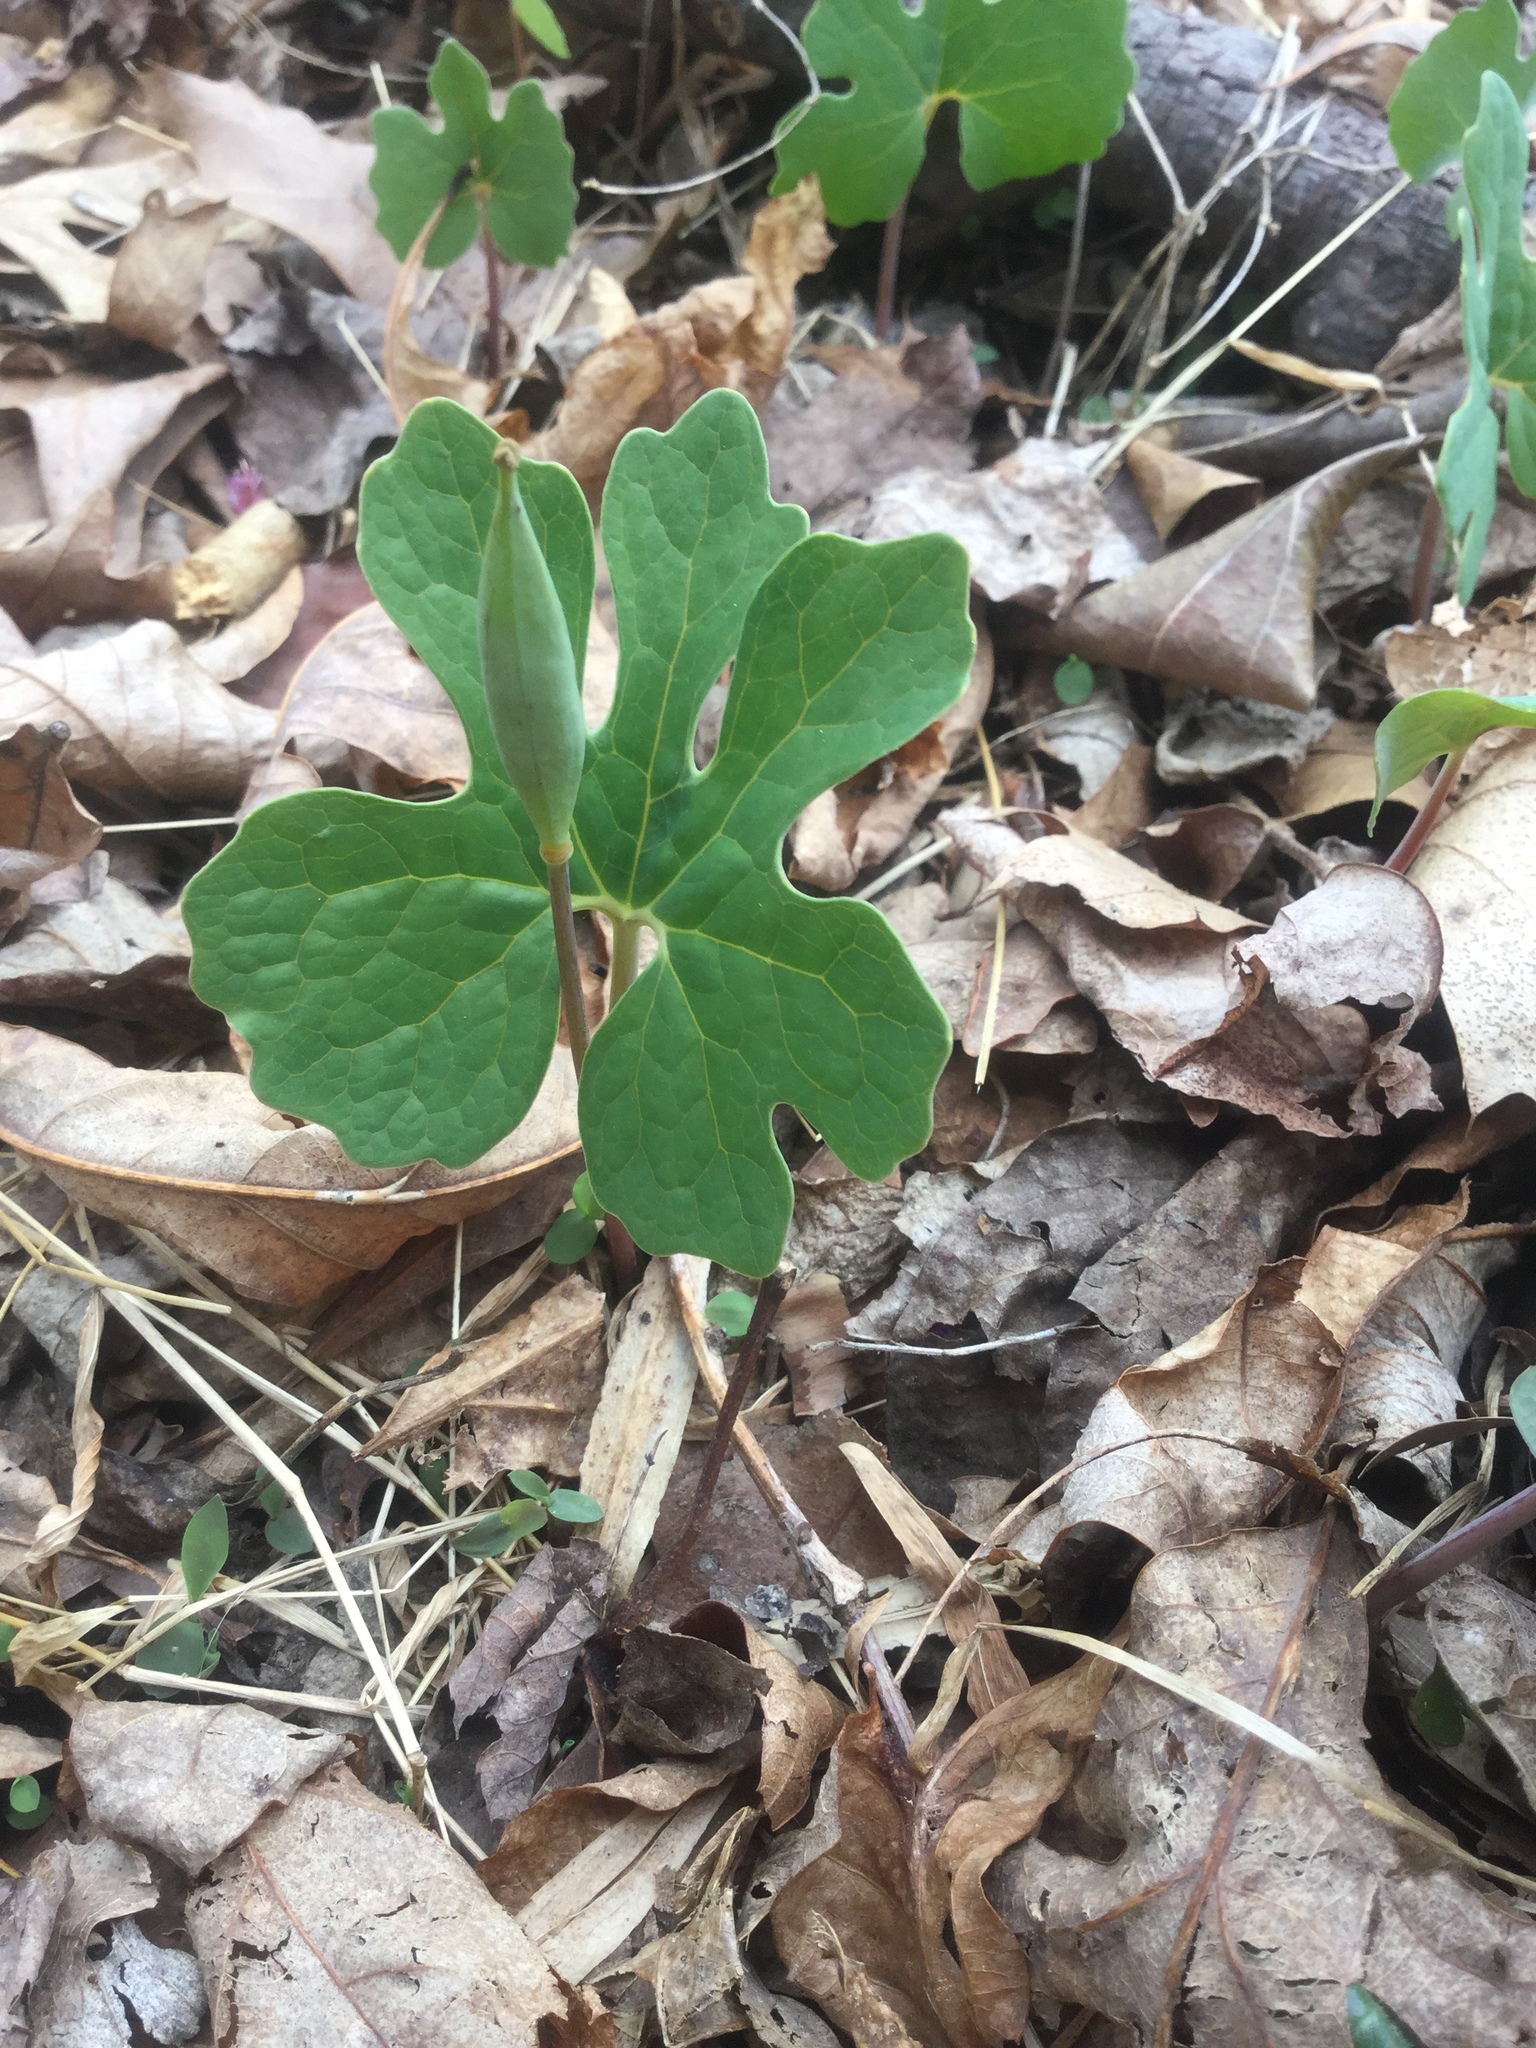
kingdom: Plantae
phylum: Tracheophyta
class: Magnoliopsida
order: Ranunculales
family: Papaveraceae
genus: Sanguinaria
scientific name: Sanguinaria canadensis
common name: Bloodroot
